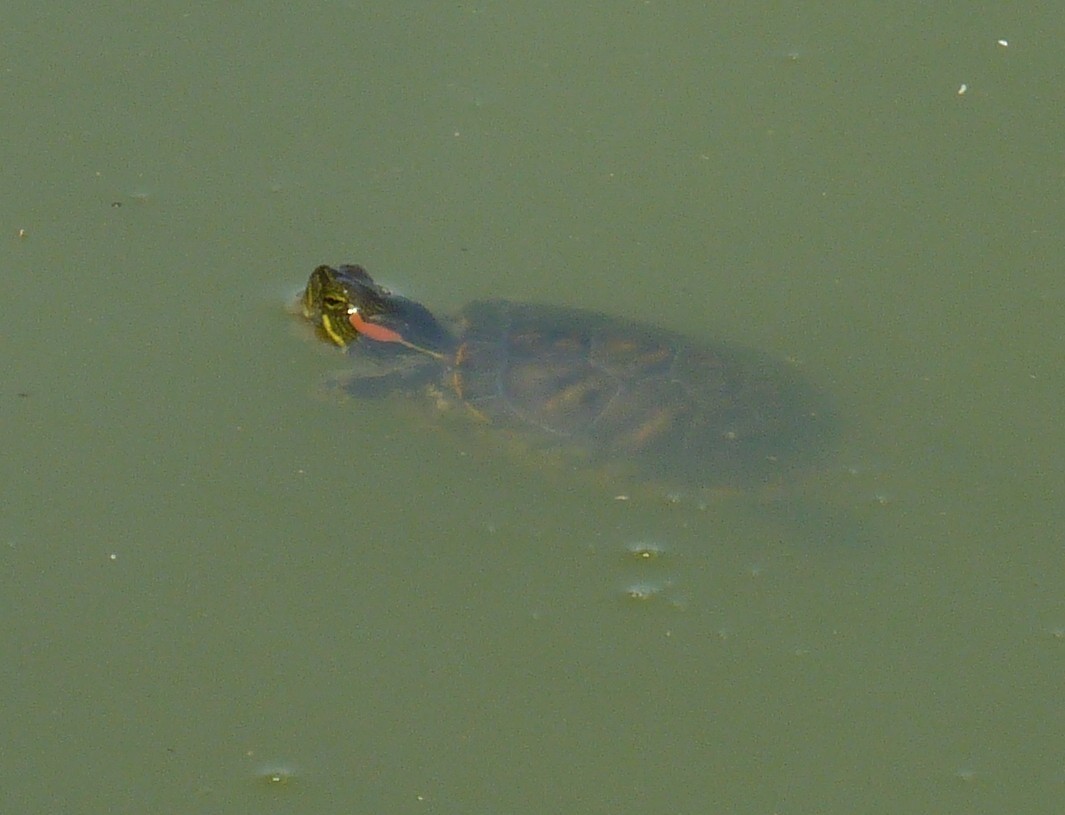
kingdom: Animalia
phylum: Chordata
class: Testudines
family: Emydidae
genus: Trachemys
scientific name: Trachemys scripta
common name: Slider
